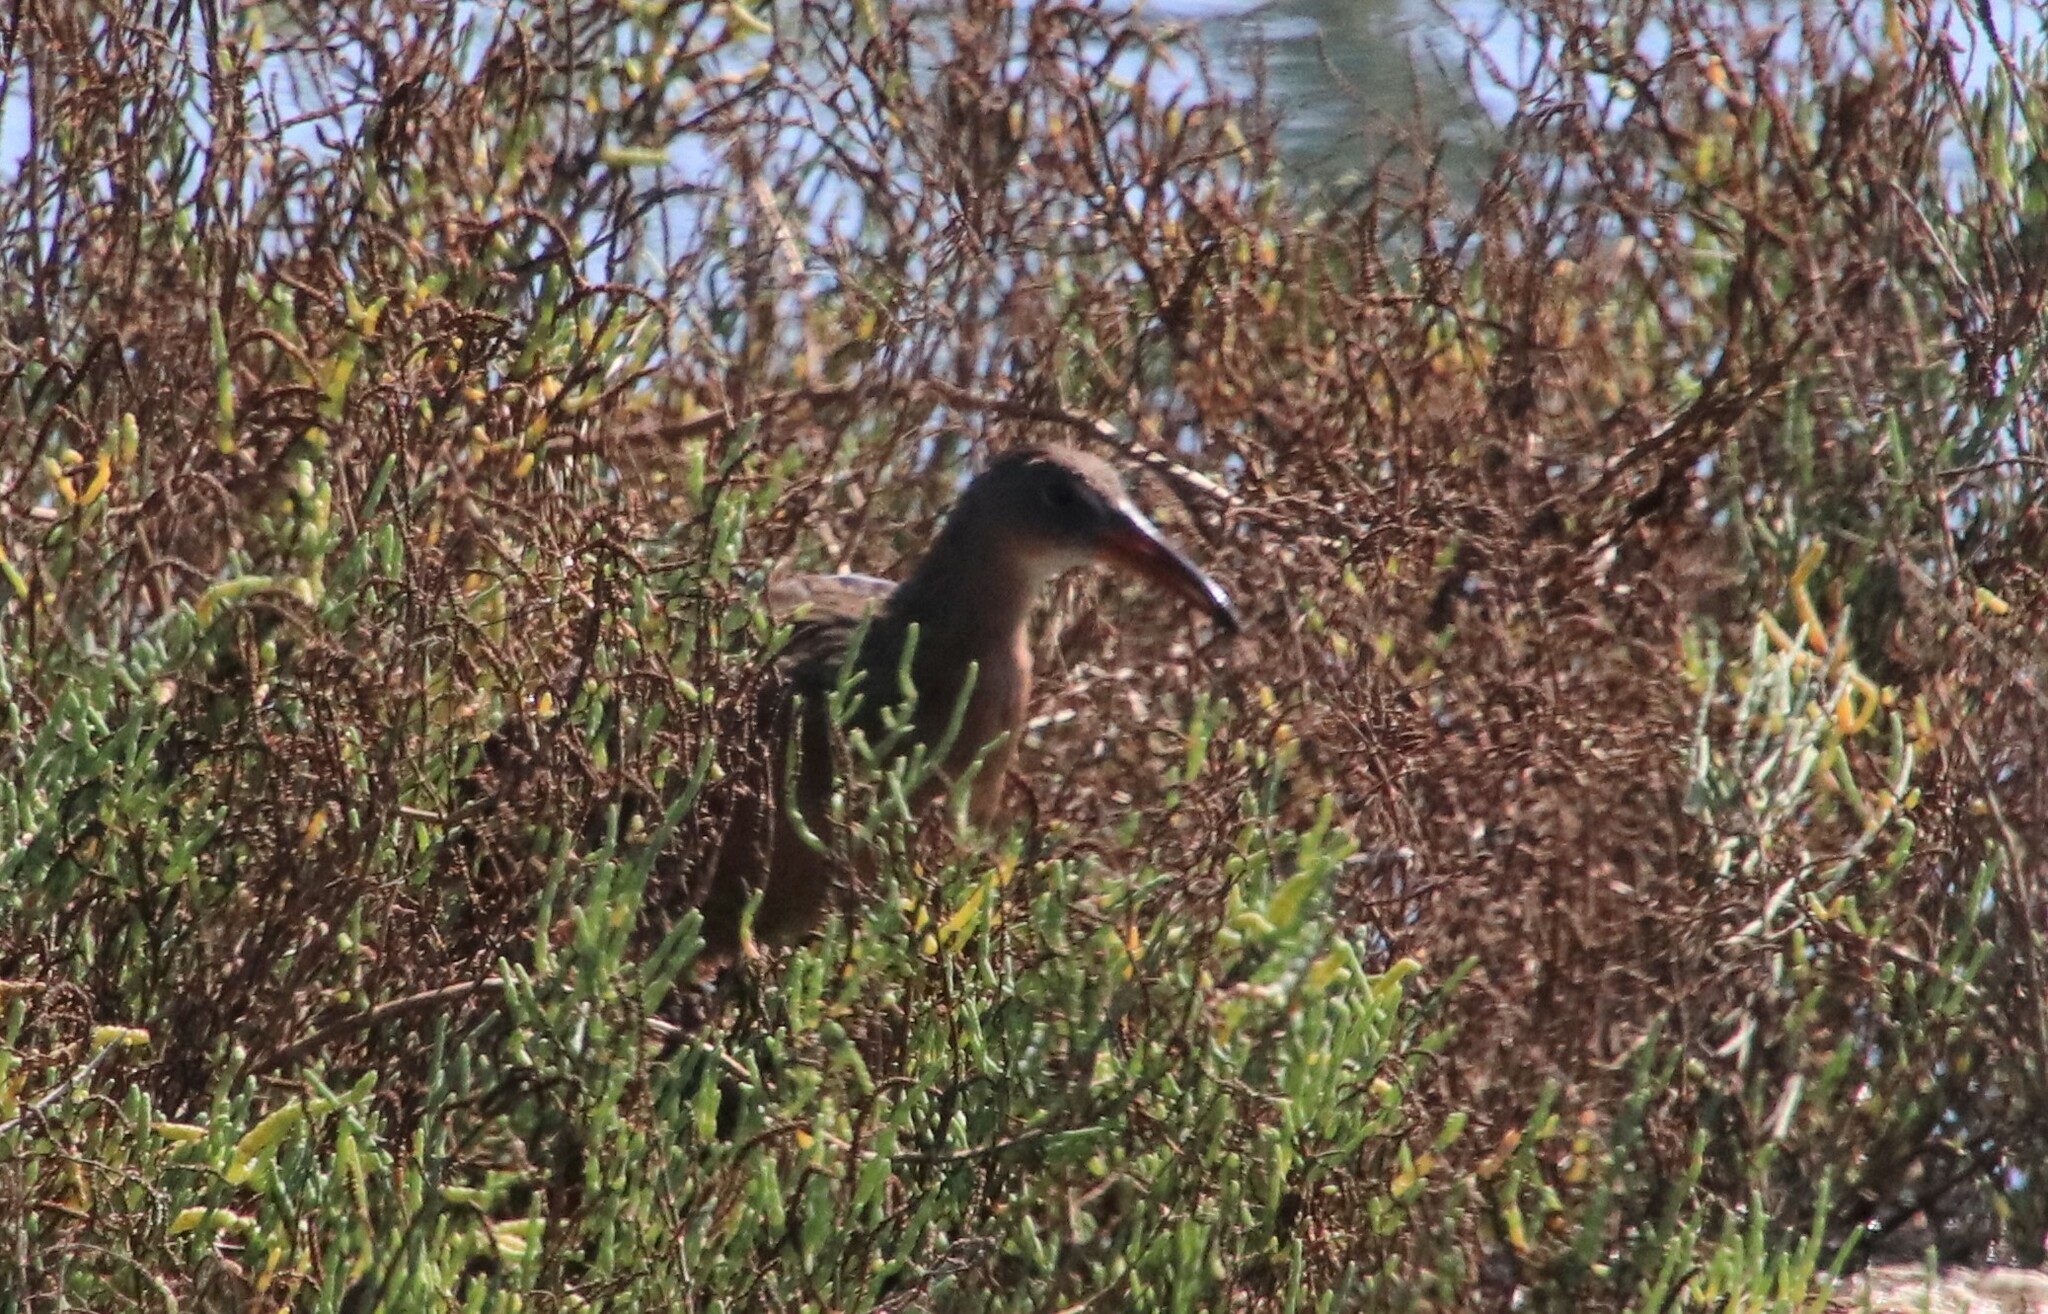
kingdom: Animalia
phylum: Chordata
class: Aves
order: Gruiformes
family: Rallidae
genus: Rallus
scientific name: Rallus obsoletus
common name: Ridgway's rail
